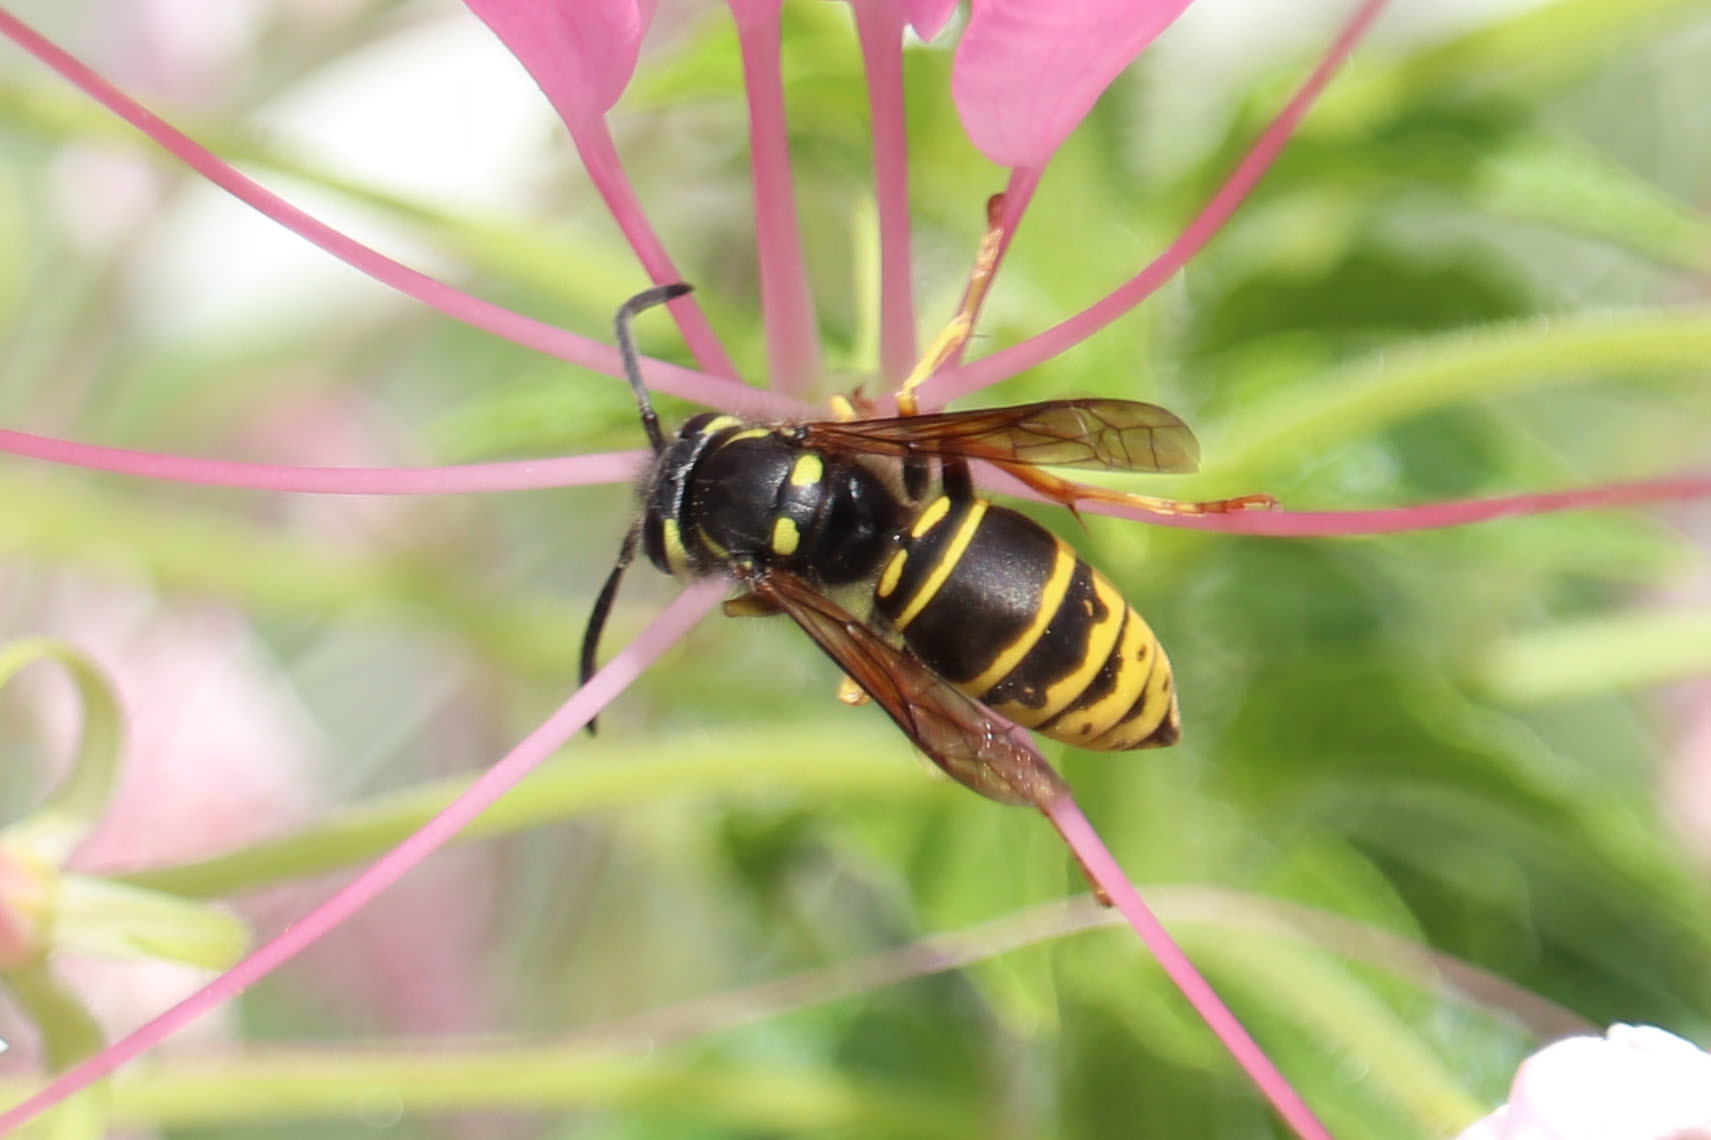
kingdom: Animalia
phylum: Arthropoda
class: Insecta
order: Hymenoptera
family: Vespidae
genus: Vespula
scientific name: Vespula vidua
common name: Widow yellowjacket
